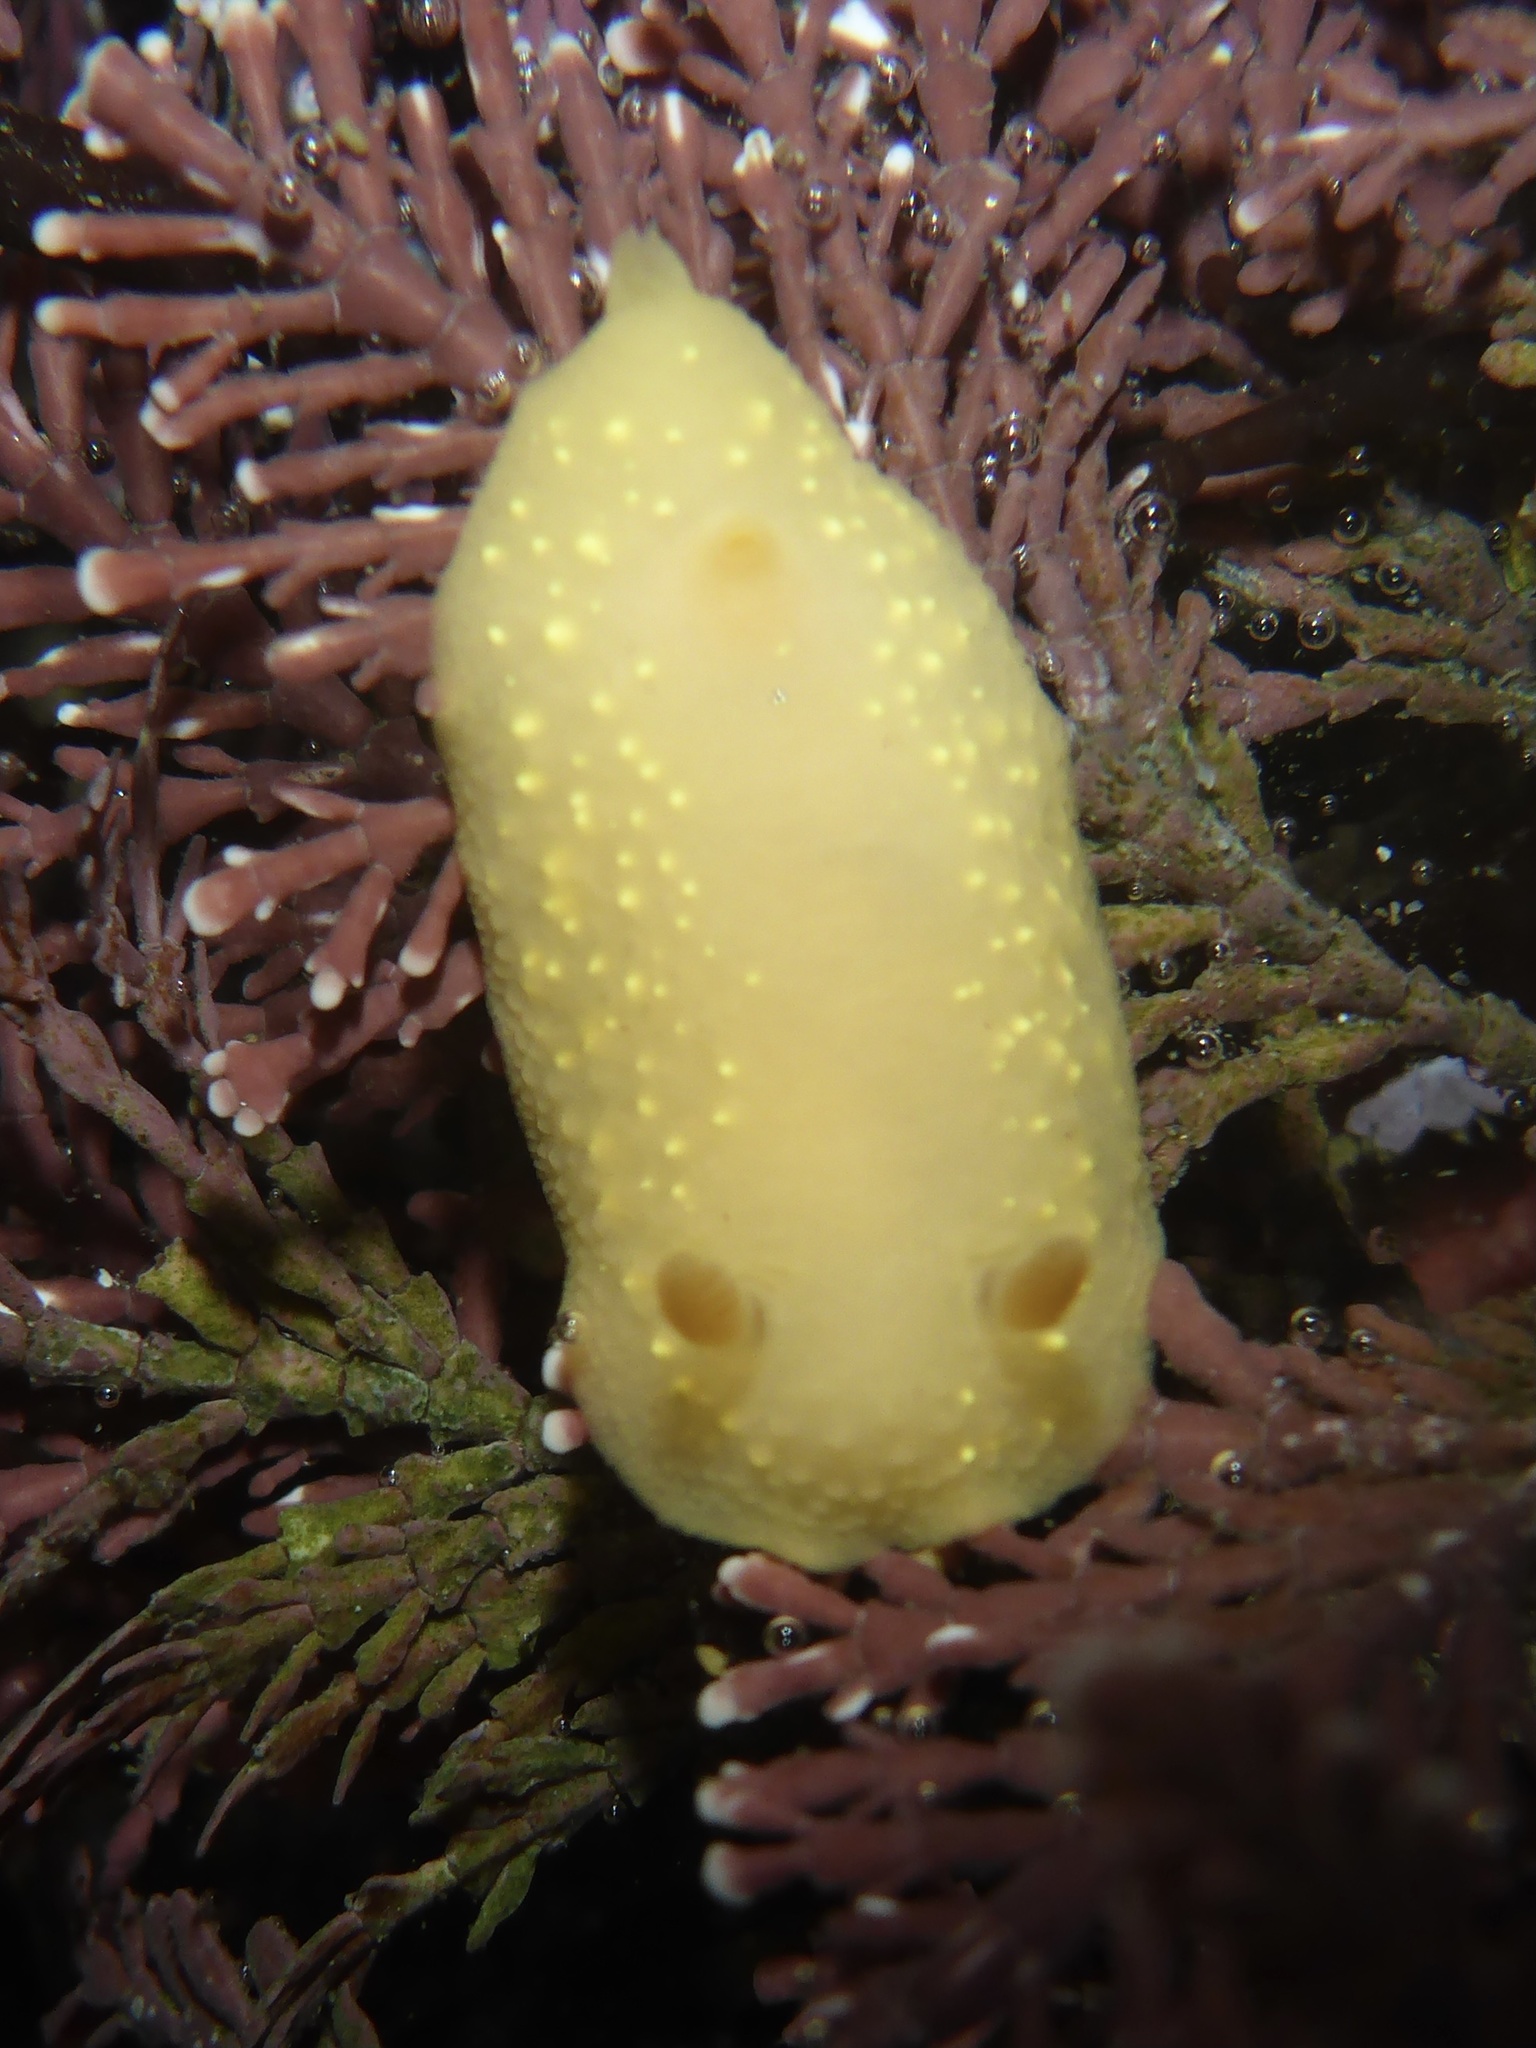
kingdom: Animalia
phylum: Mollusca
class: Gastropoda
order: Nudibranchia
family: Cadlinidae
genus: Cadlina
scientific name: Cadlina modesta
